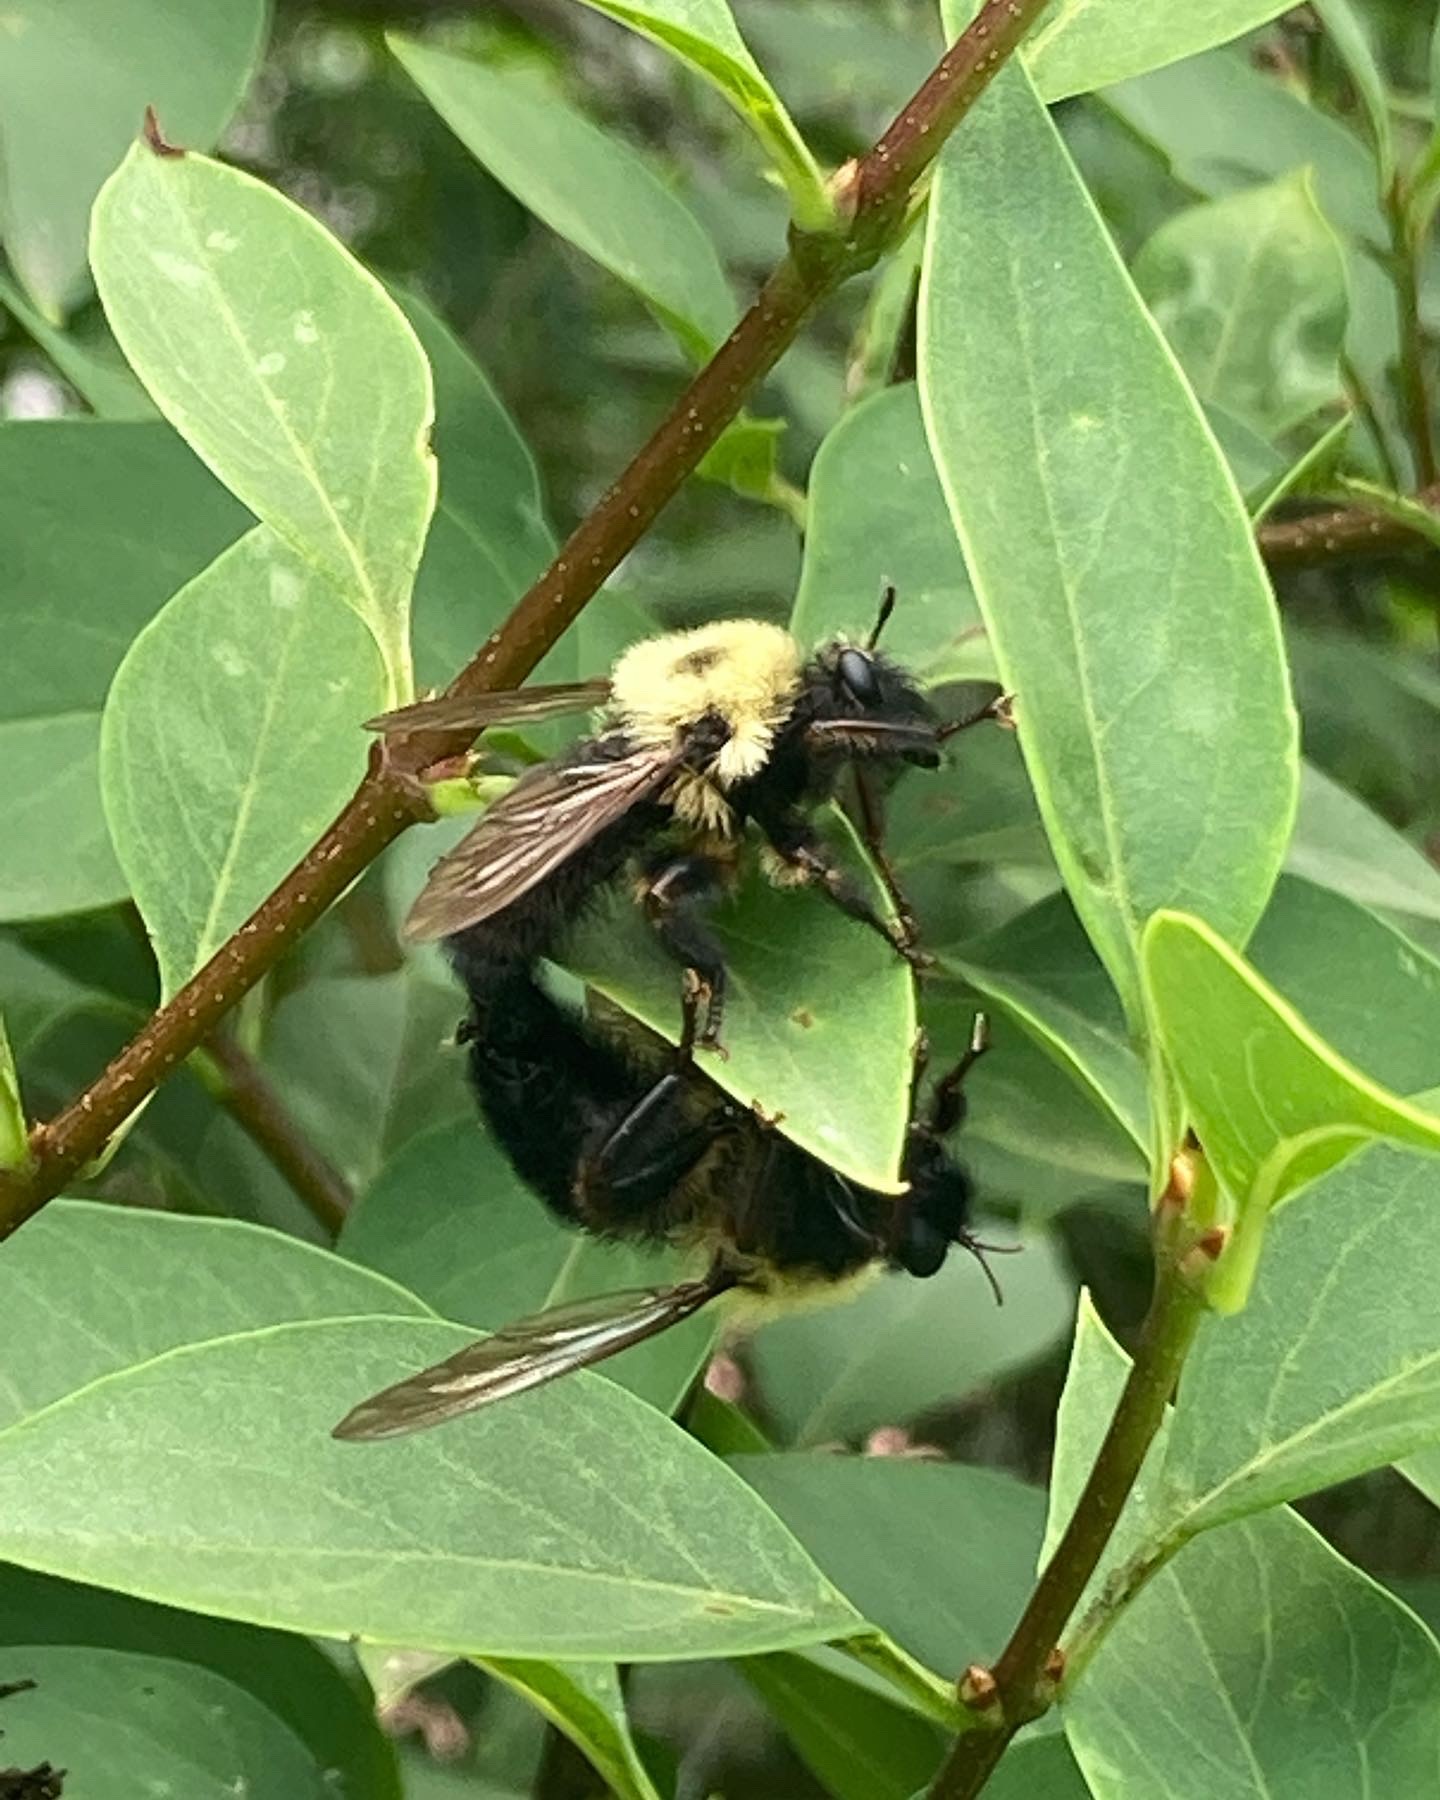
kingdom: Animalia
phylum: Arthropoda
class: Insecta
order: Diptera
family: Asilidae
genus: Laphria
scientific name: Laphria thoracica
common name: Bumble bee mimic robber fly
